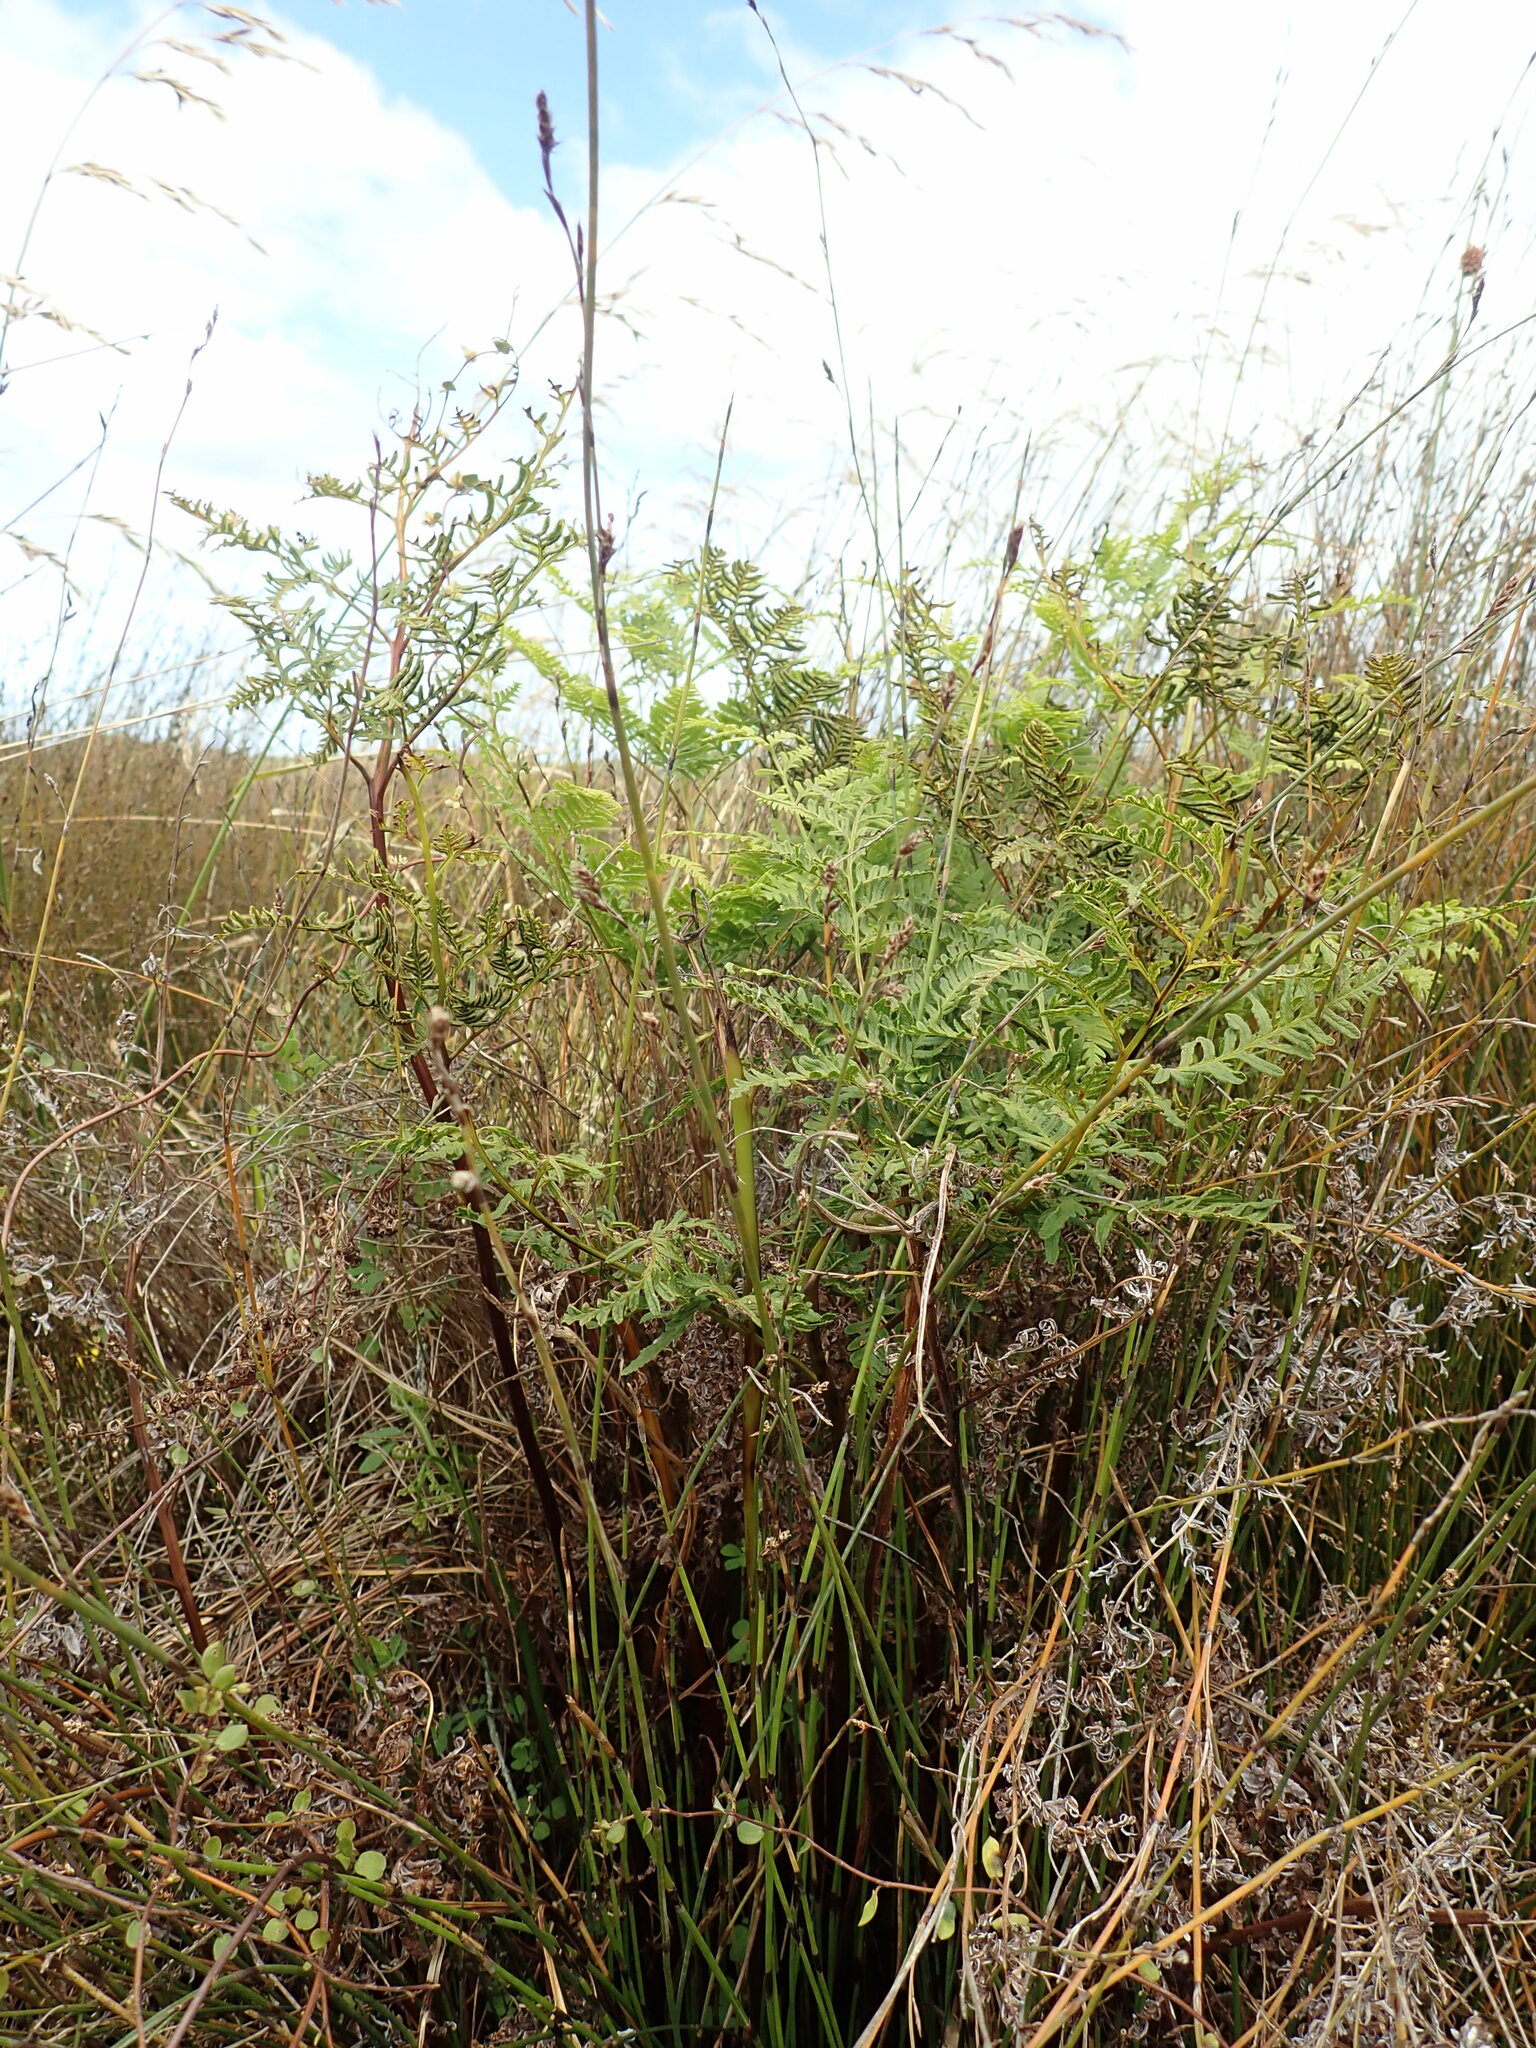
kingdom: Plantae
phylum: Tracheophyta
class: Polypodiopsida
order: Polypodiales
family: Pteridaceae
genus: Pteris
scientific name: Pteris tremula
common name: Australian brake
